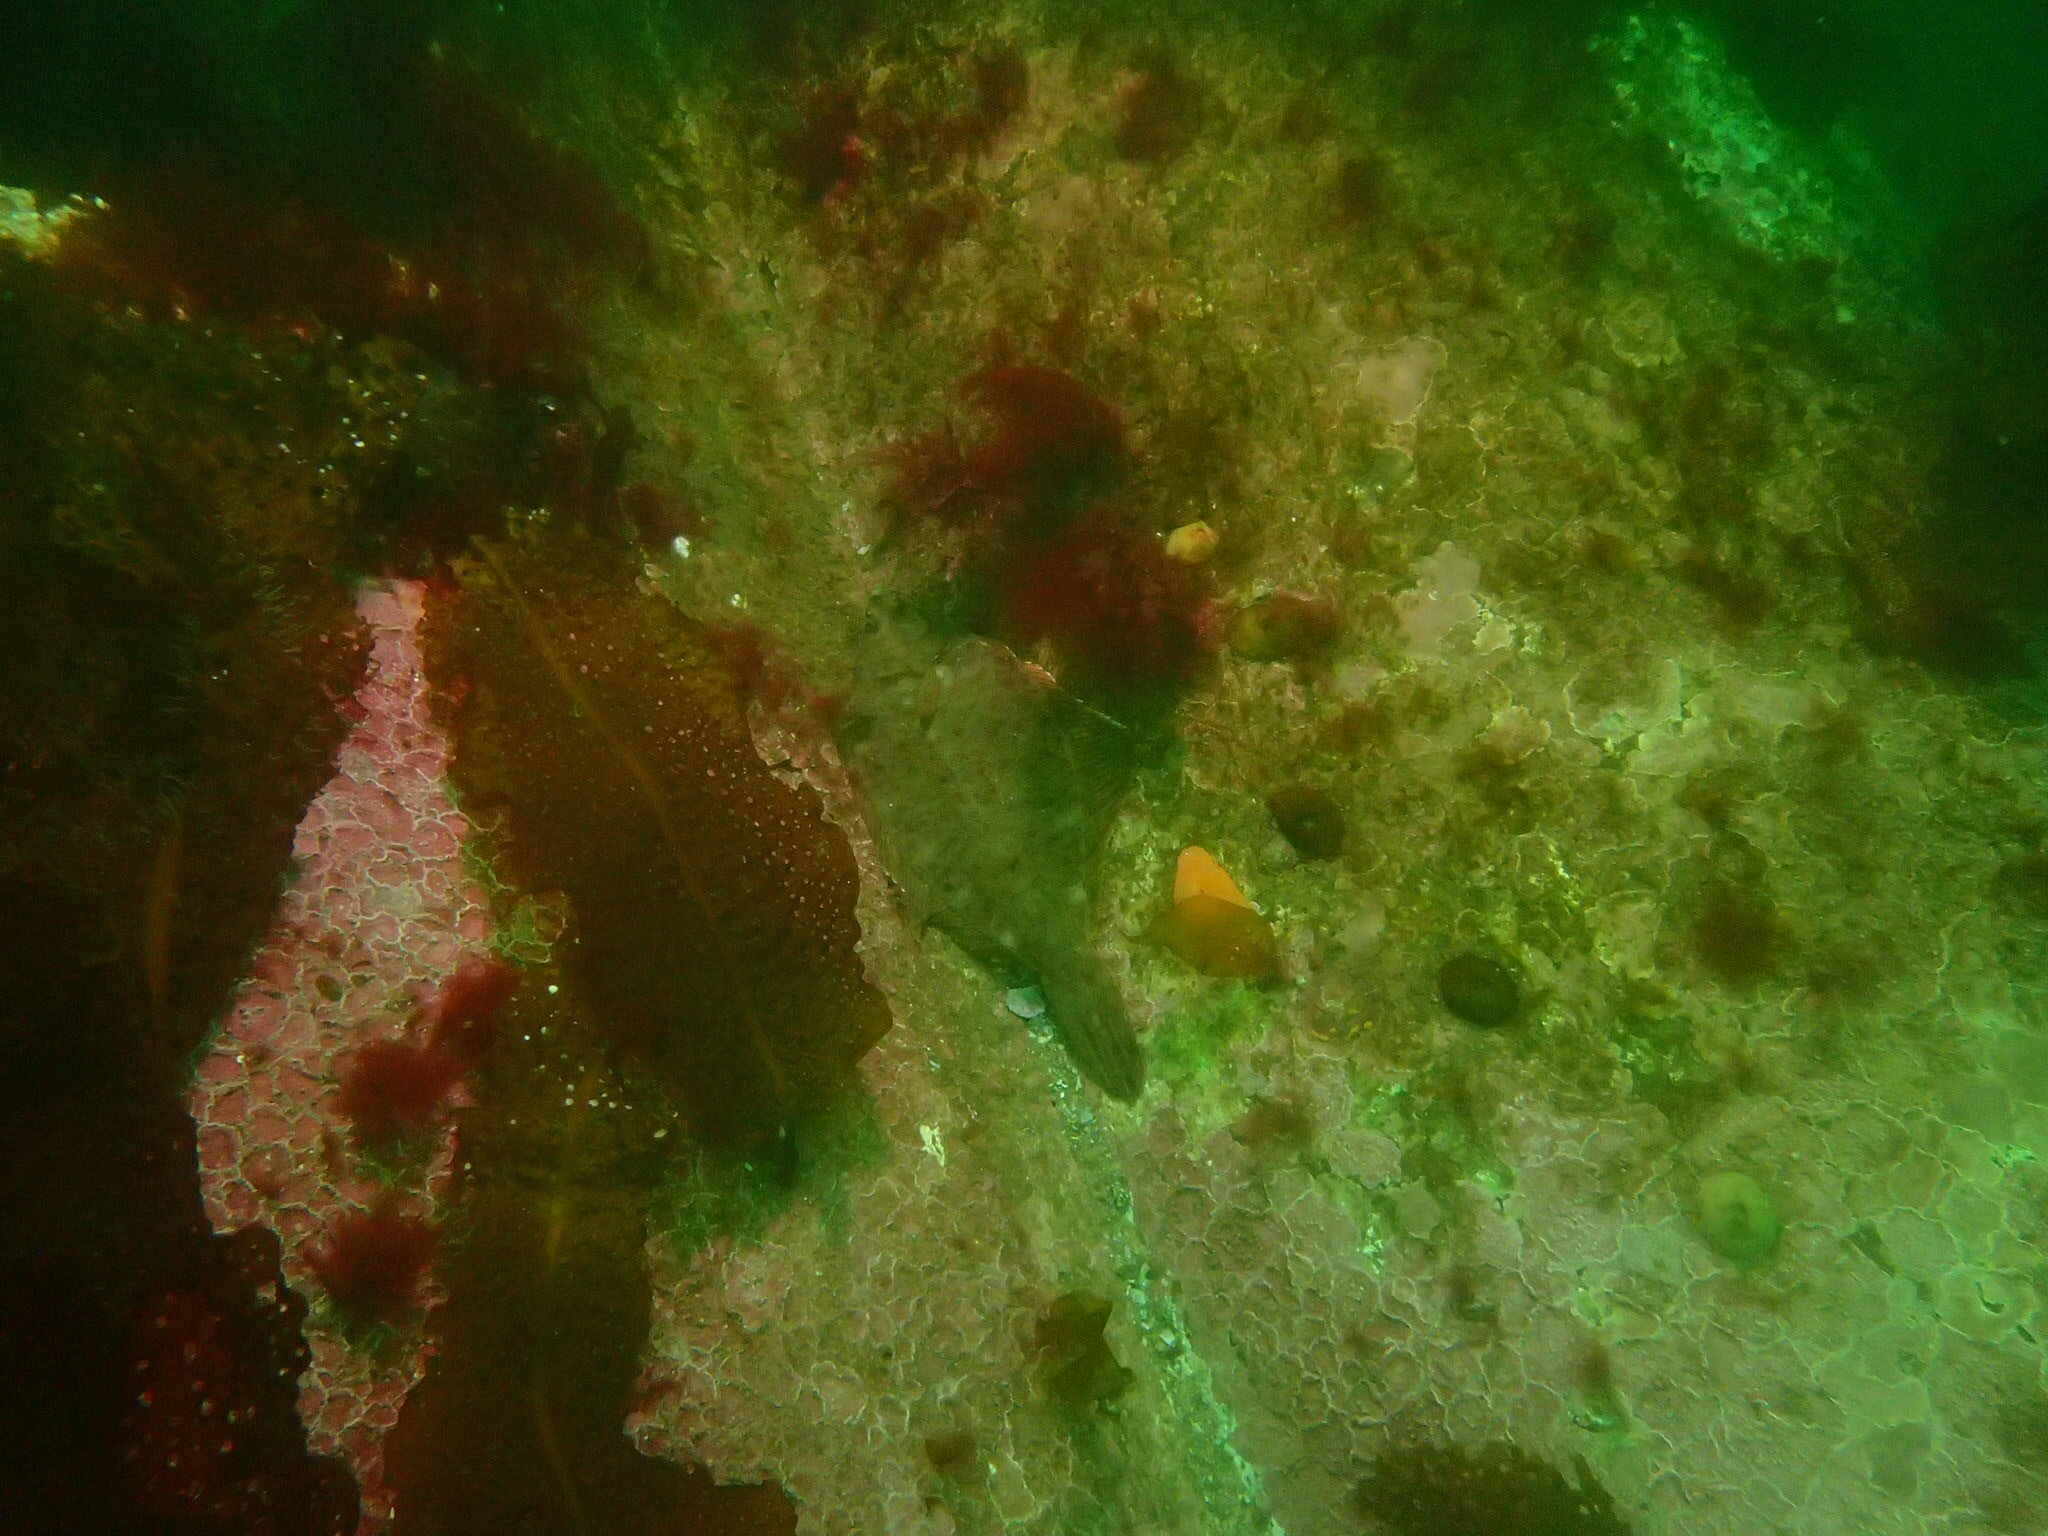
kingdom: Animalia
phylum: Chordata
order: Pleuronectiformes
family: Pleuronectidae
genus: Pseudopleuronectes
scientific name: Pseudopleuronectes americanus
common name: Black backs
